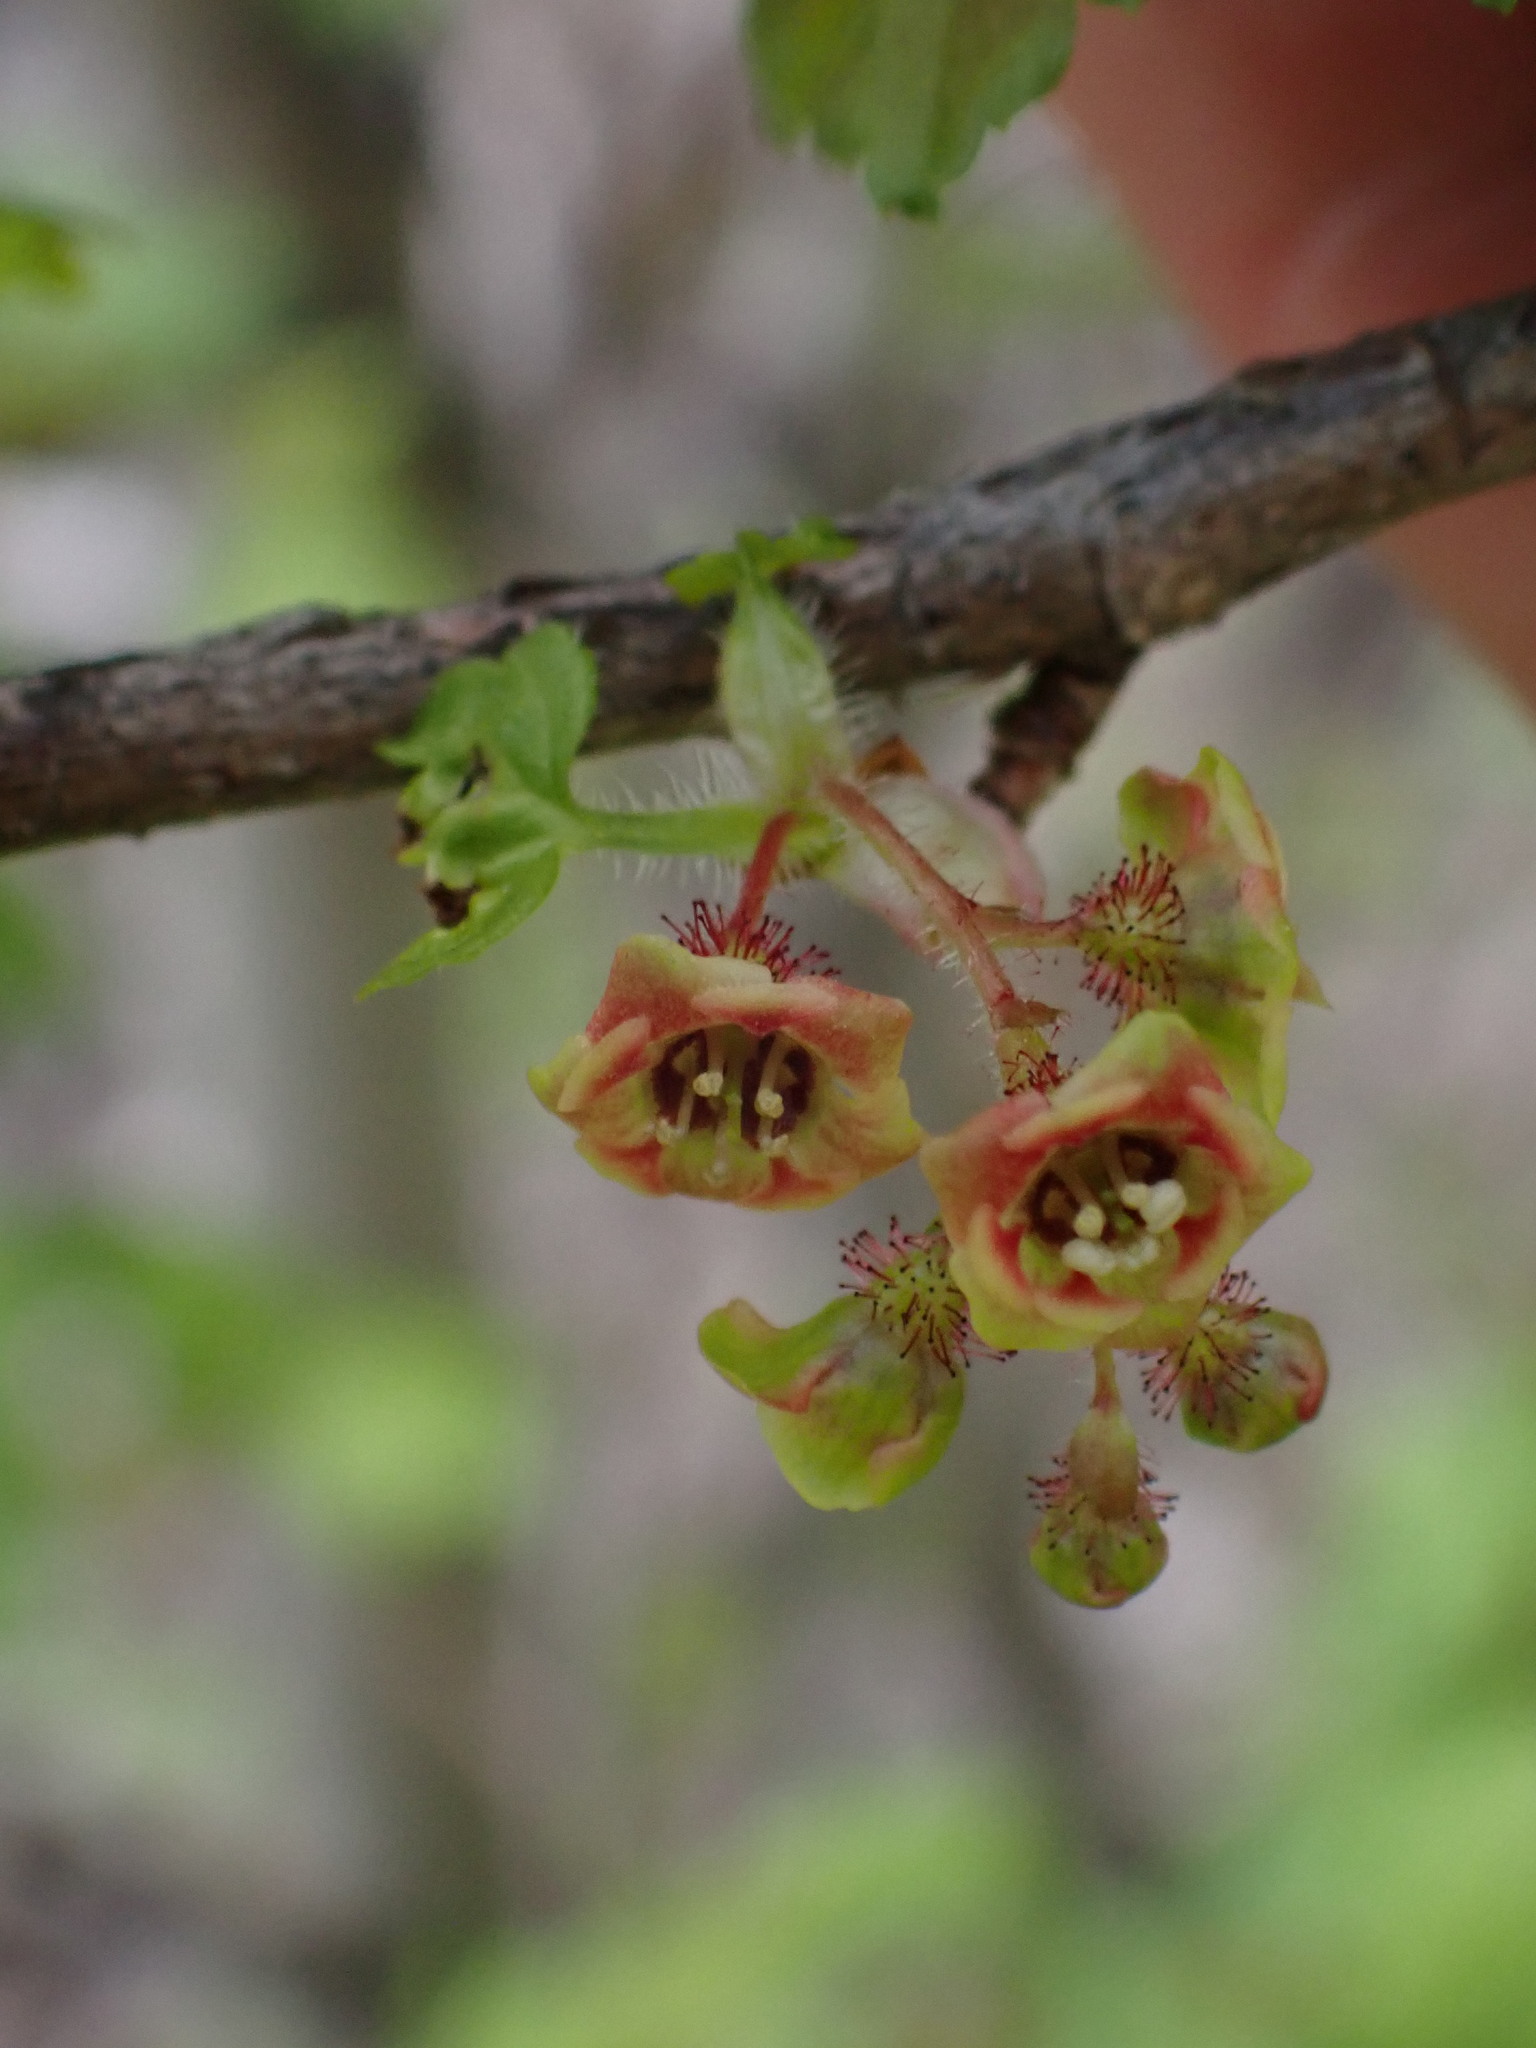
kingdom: Plantae
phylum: Tracheophyta
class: Magnoliopsida
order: Saxifragales
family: Grossulariaceae
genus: Ribes
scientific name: Ribes lacustre
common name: Black gooseberry
